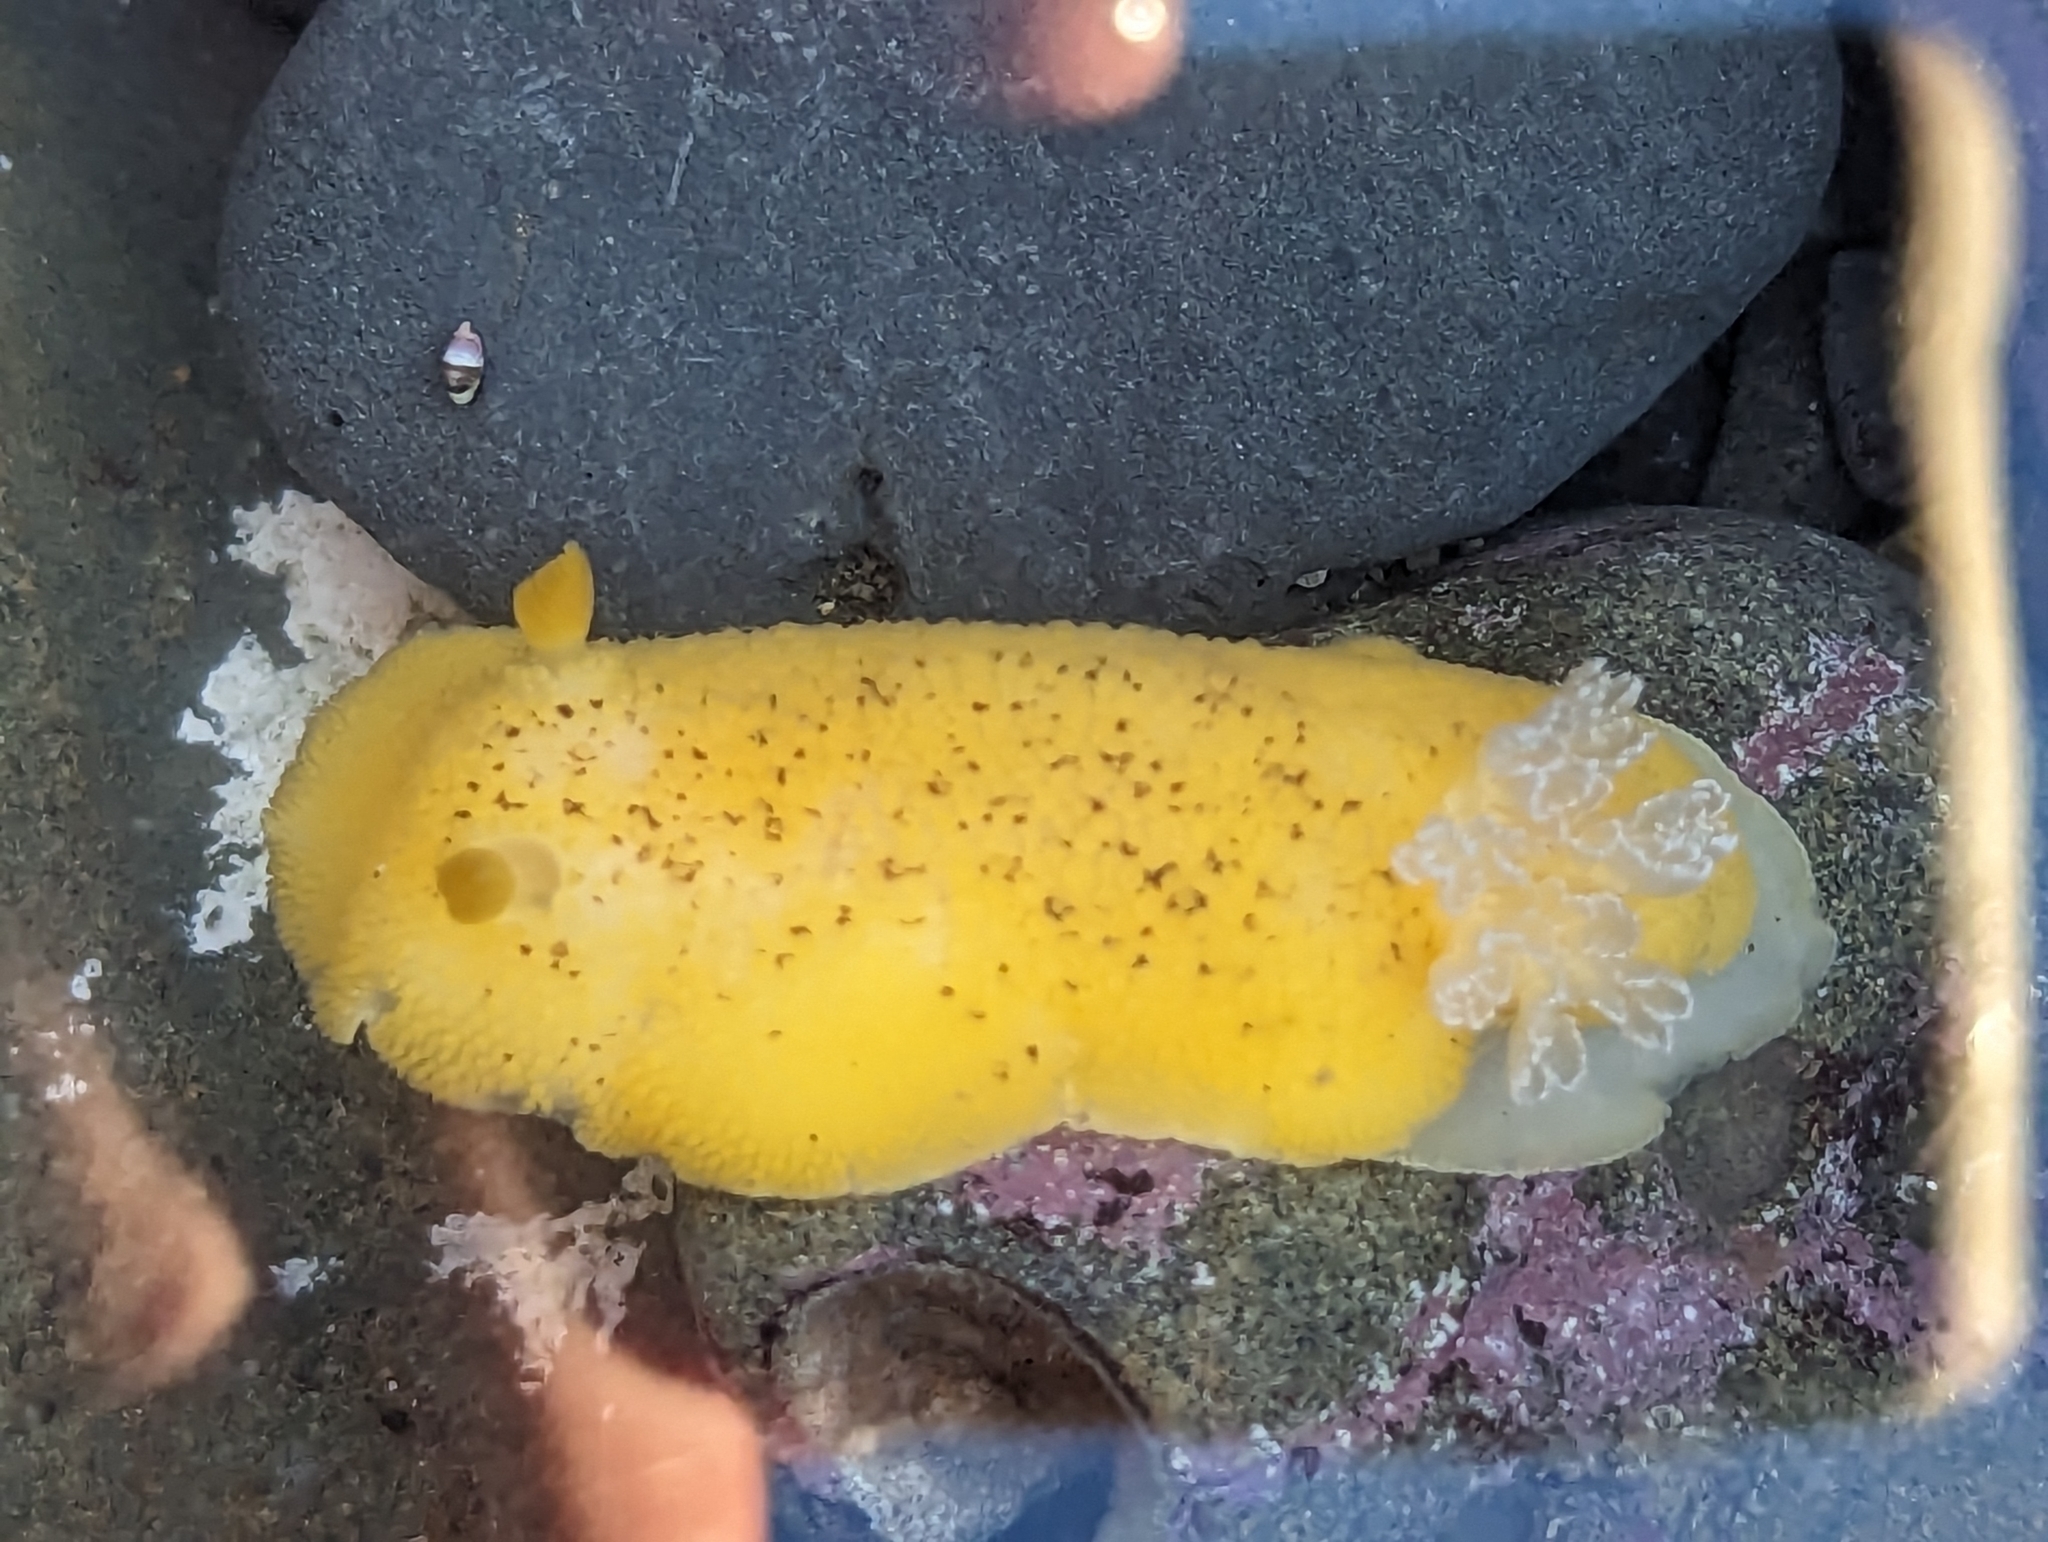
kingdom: Animalia
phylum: Mollusca
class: Gastropoda
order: Nudibranchia
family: Discodorididae
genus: Peltodoris
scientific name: Peltodoris nobilis
